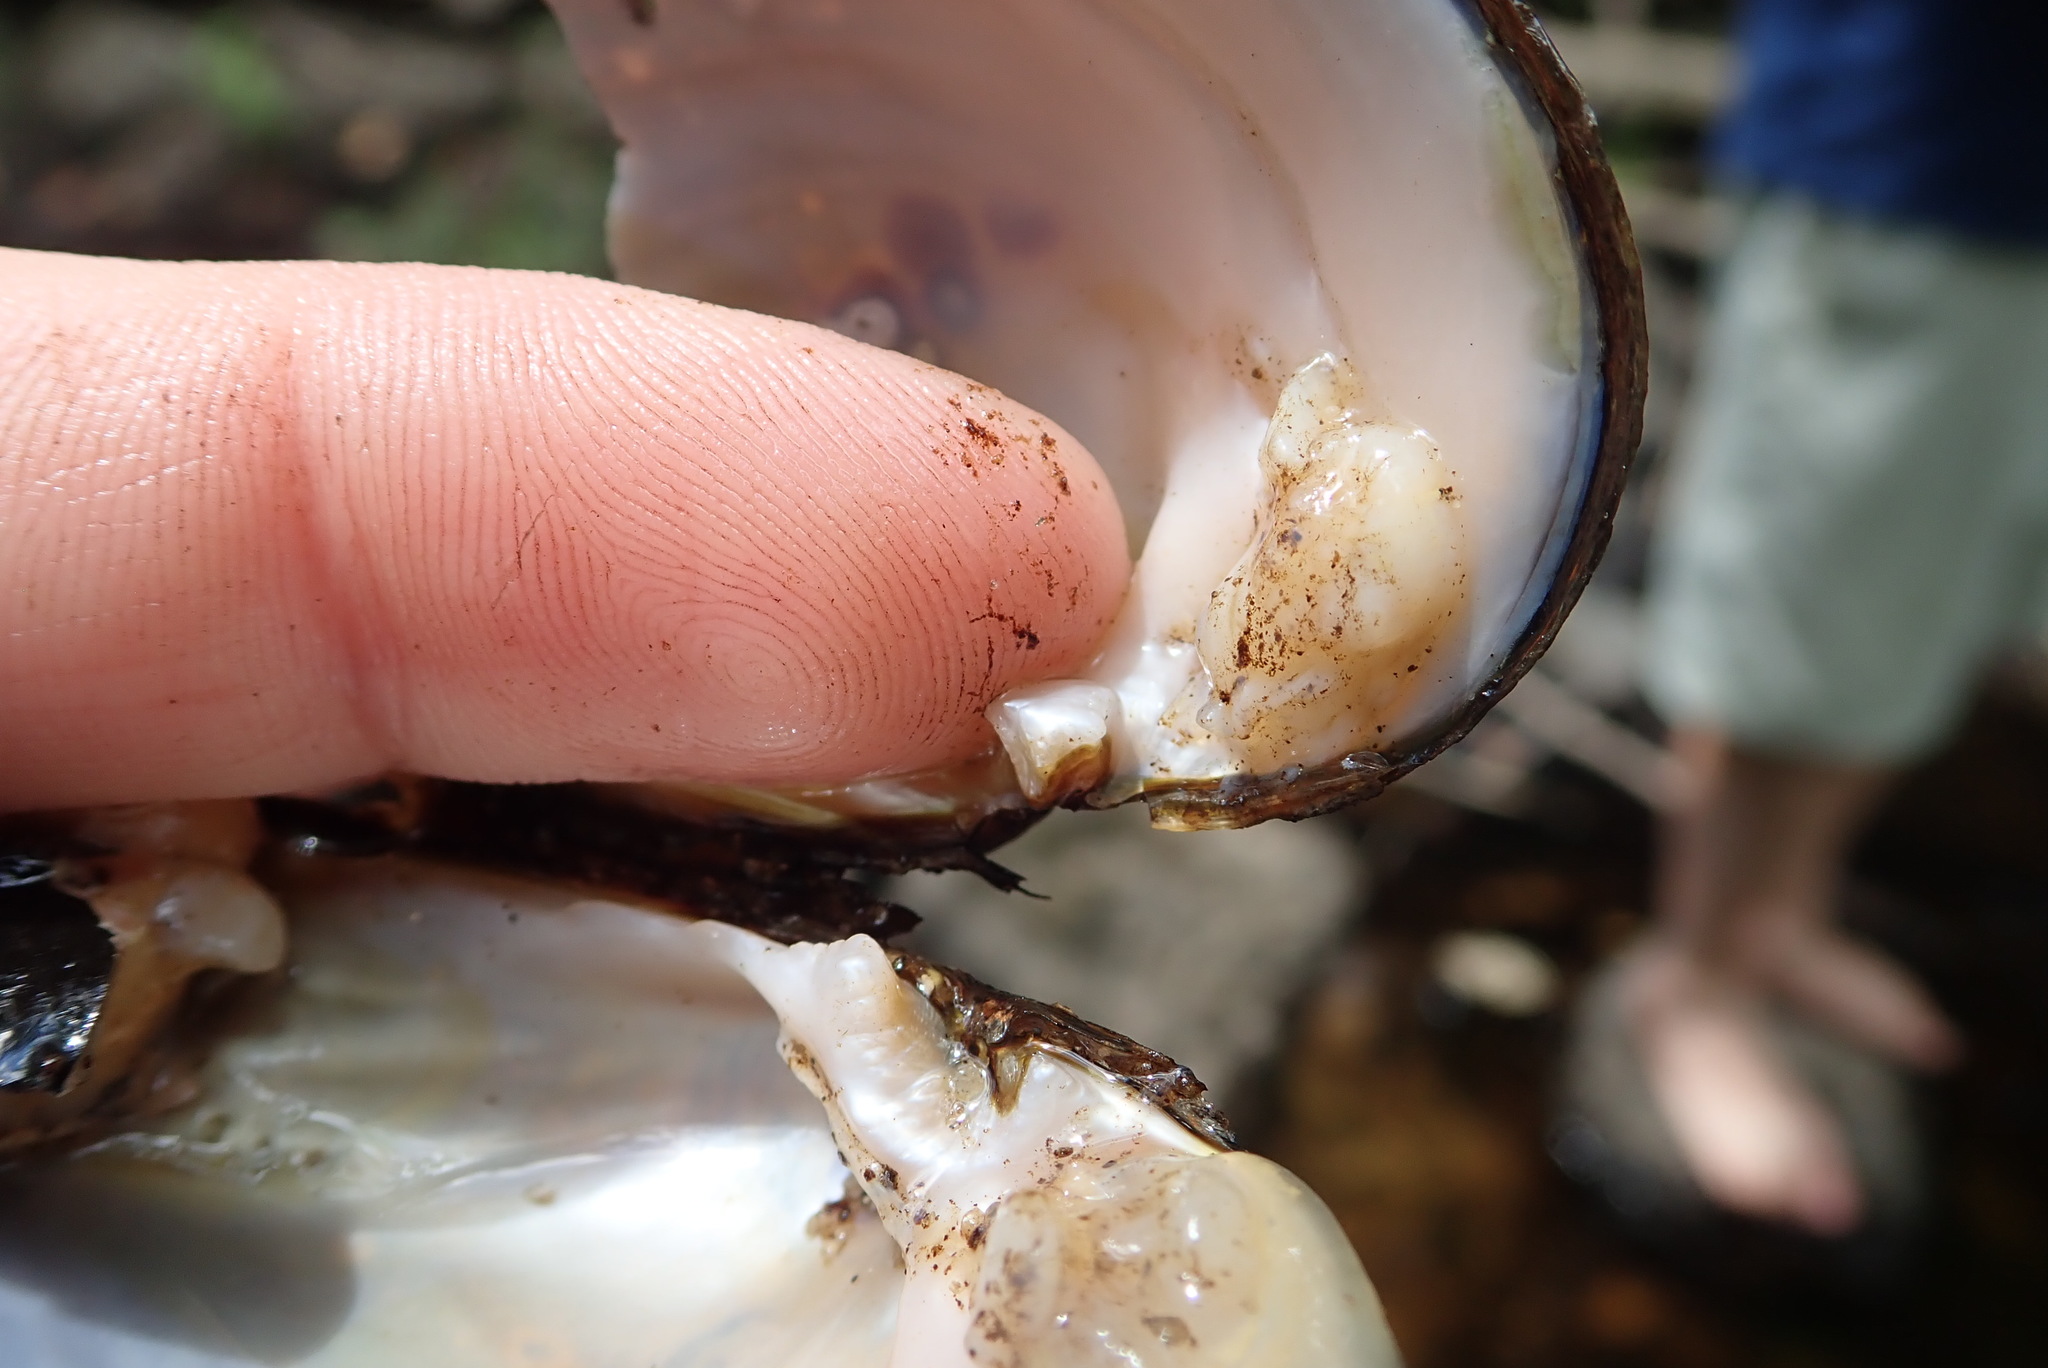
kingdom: Animalia
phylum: Mollusca
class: Bivalvia
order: Unionida
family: Unionidae
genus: Alasmidonta
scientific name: Alasmidonta undulata
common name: Triangle floater
